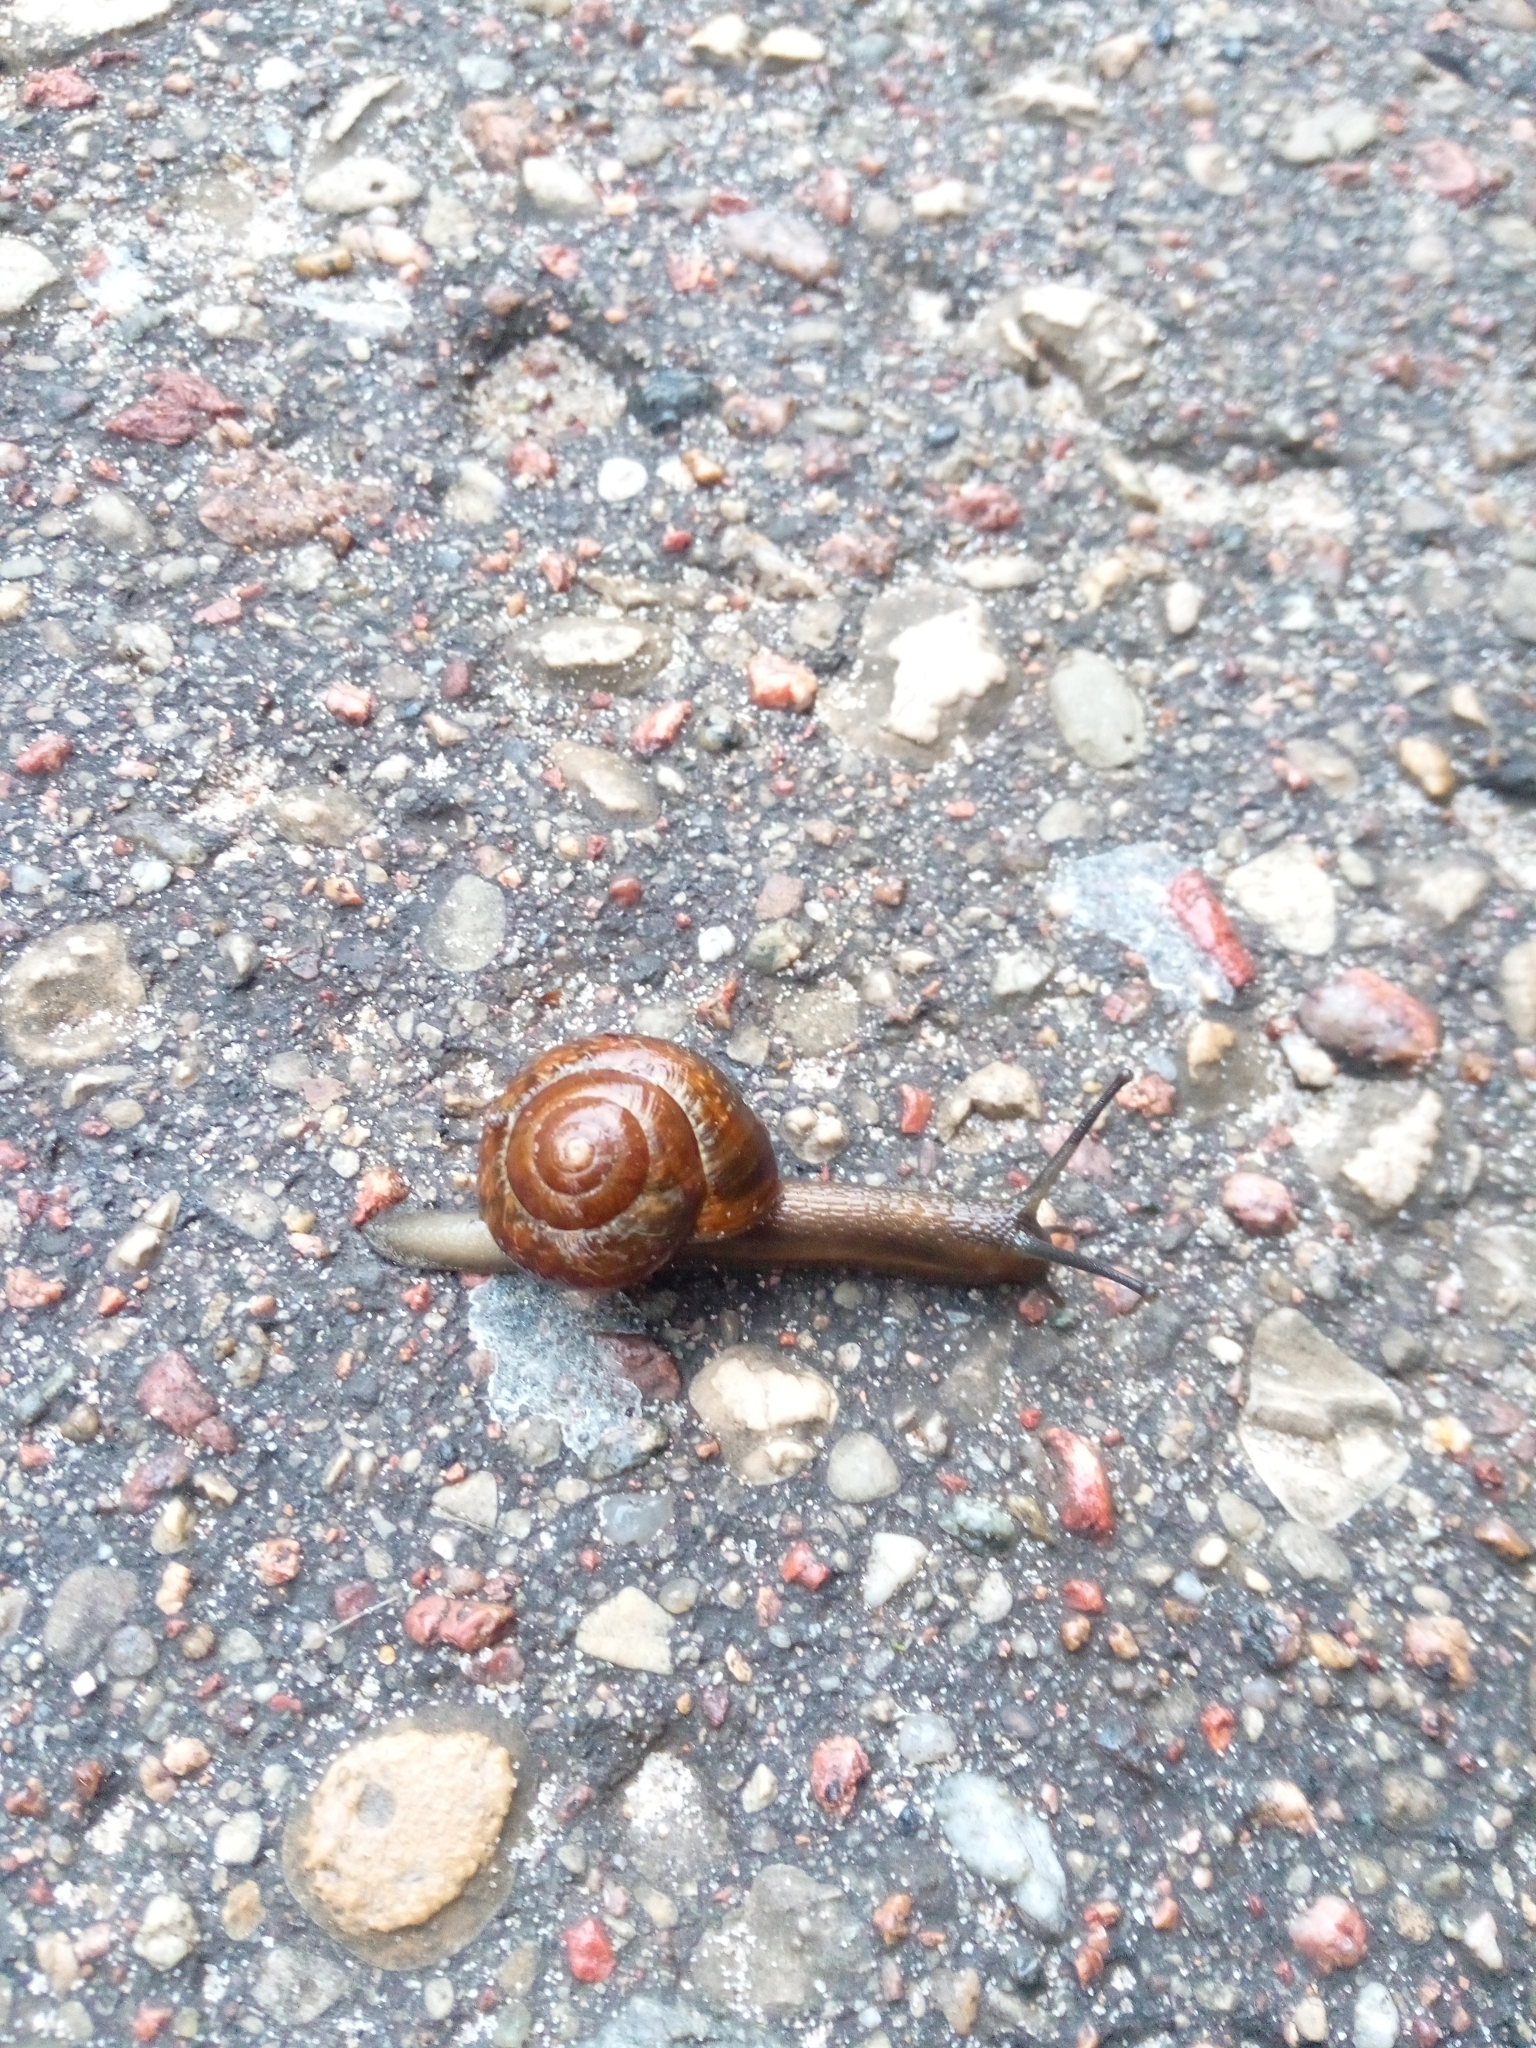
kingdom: Animalia
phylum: Mollusca
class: Gastropoda
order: Stylommatophora
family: Helicidae
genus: Arianta
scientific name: Arianta arbustorum
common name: Copse snail
